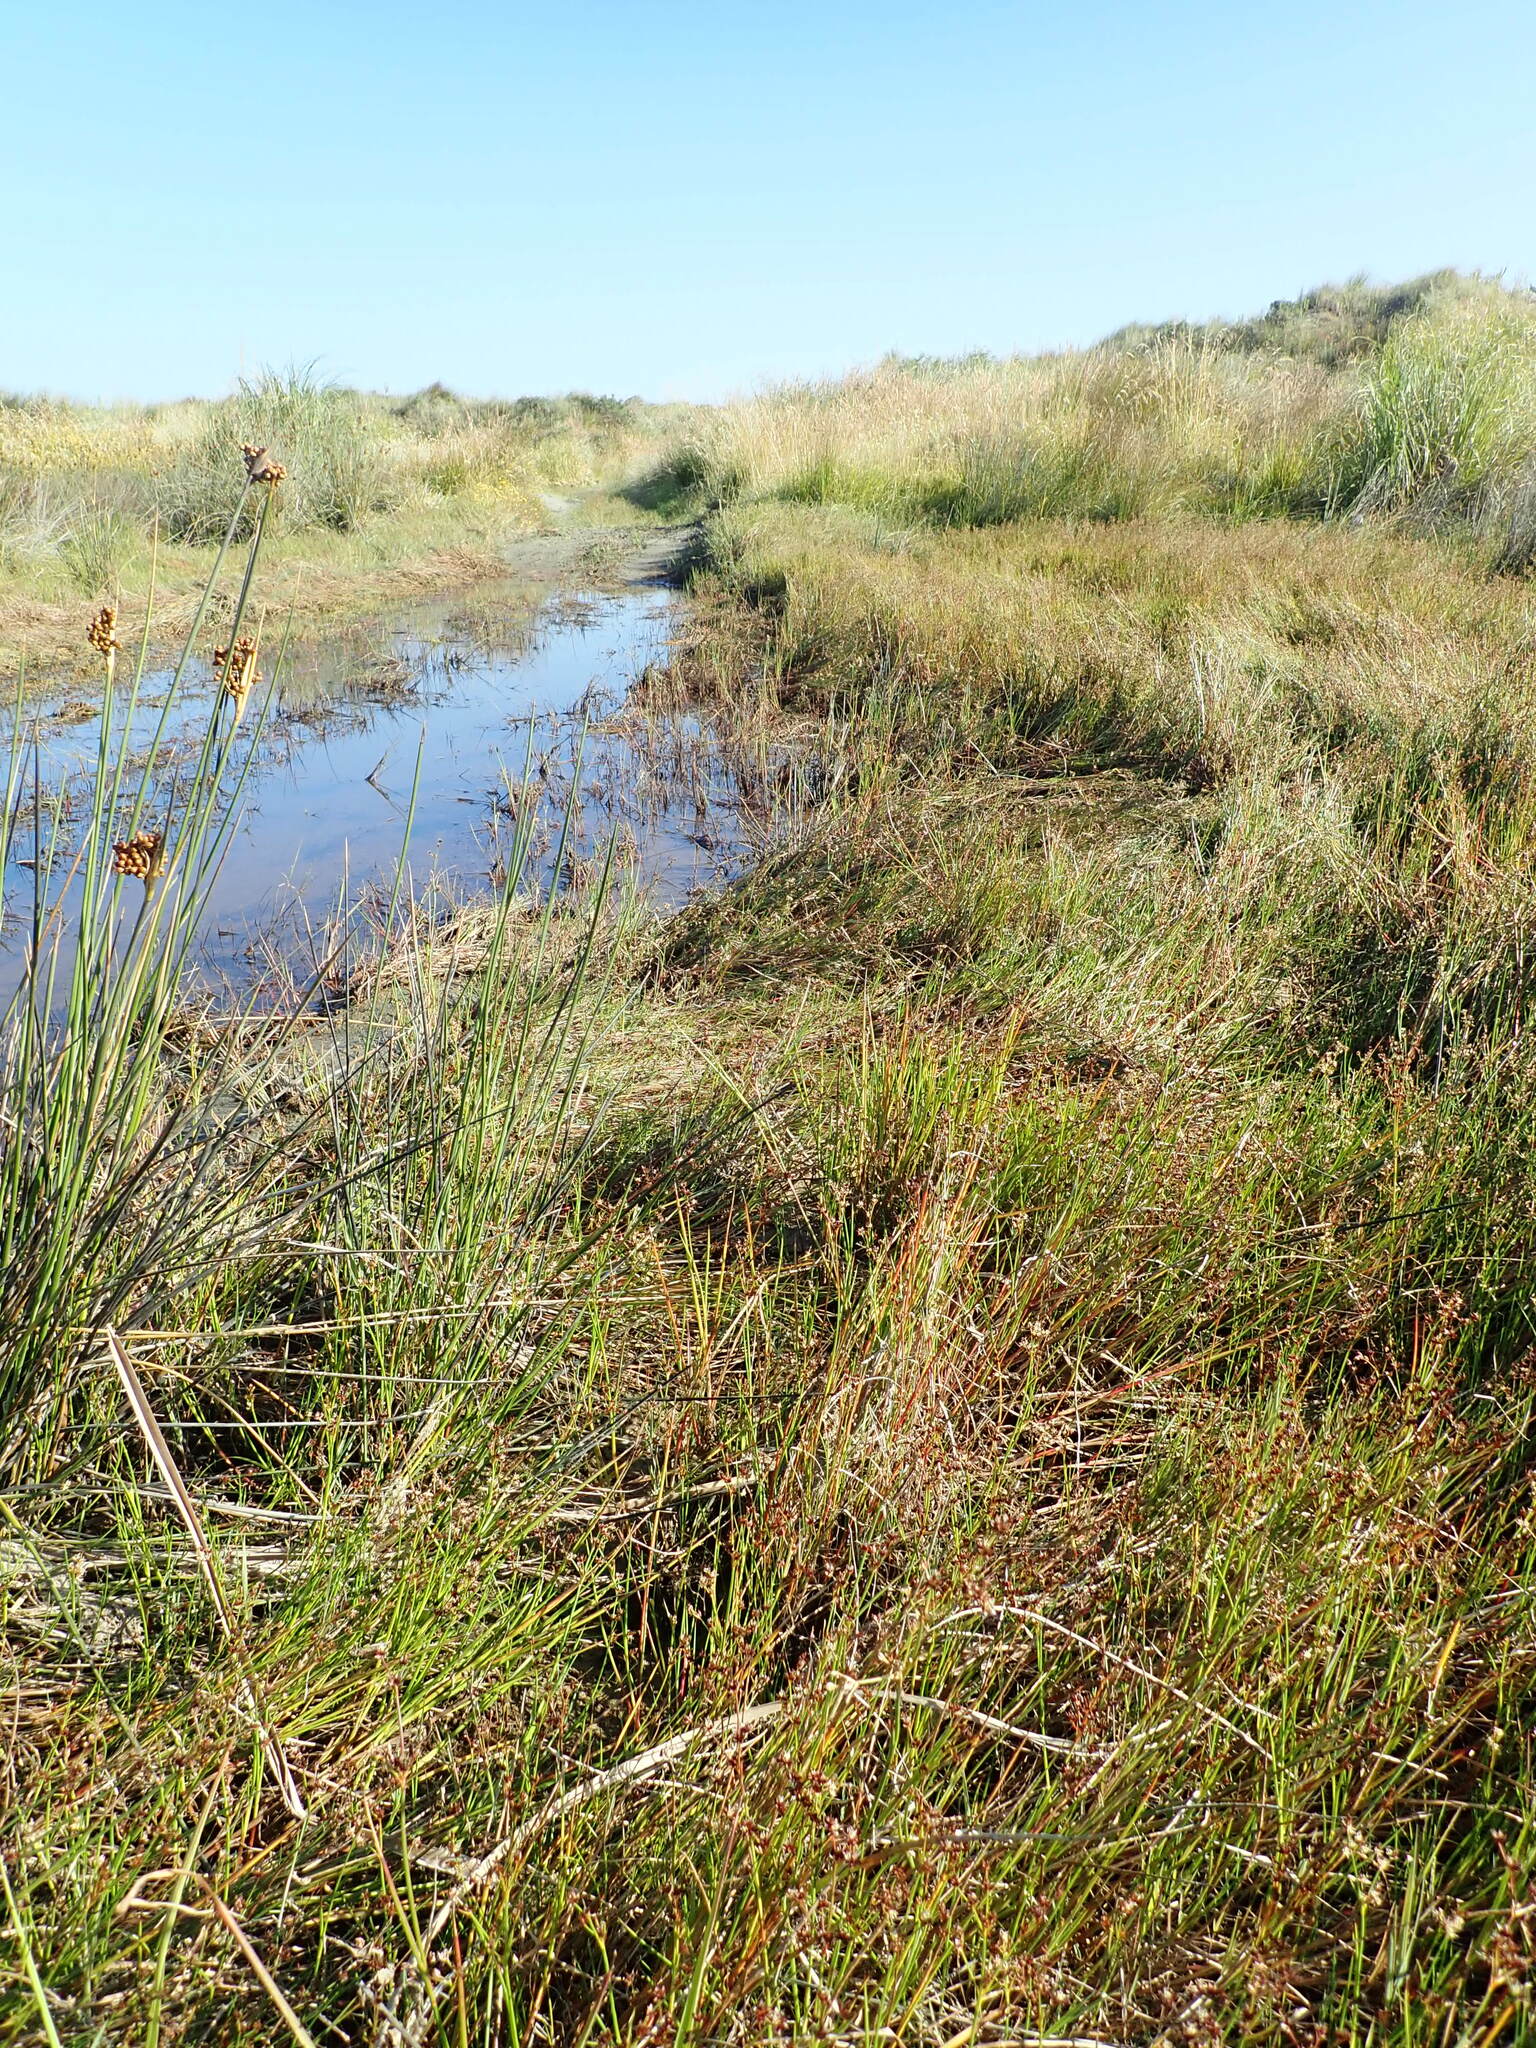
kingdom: Animalia
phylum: Arthropoda
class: Insecta
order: Odonata
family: Lestidae
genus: Austrolestes
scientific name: Austrolestes colensonis
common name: Blue damselfly
